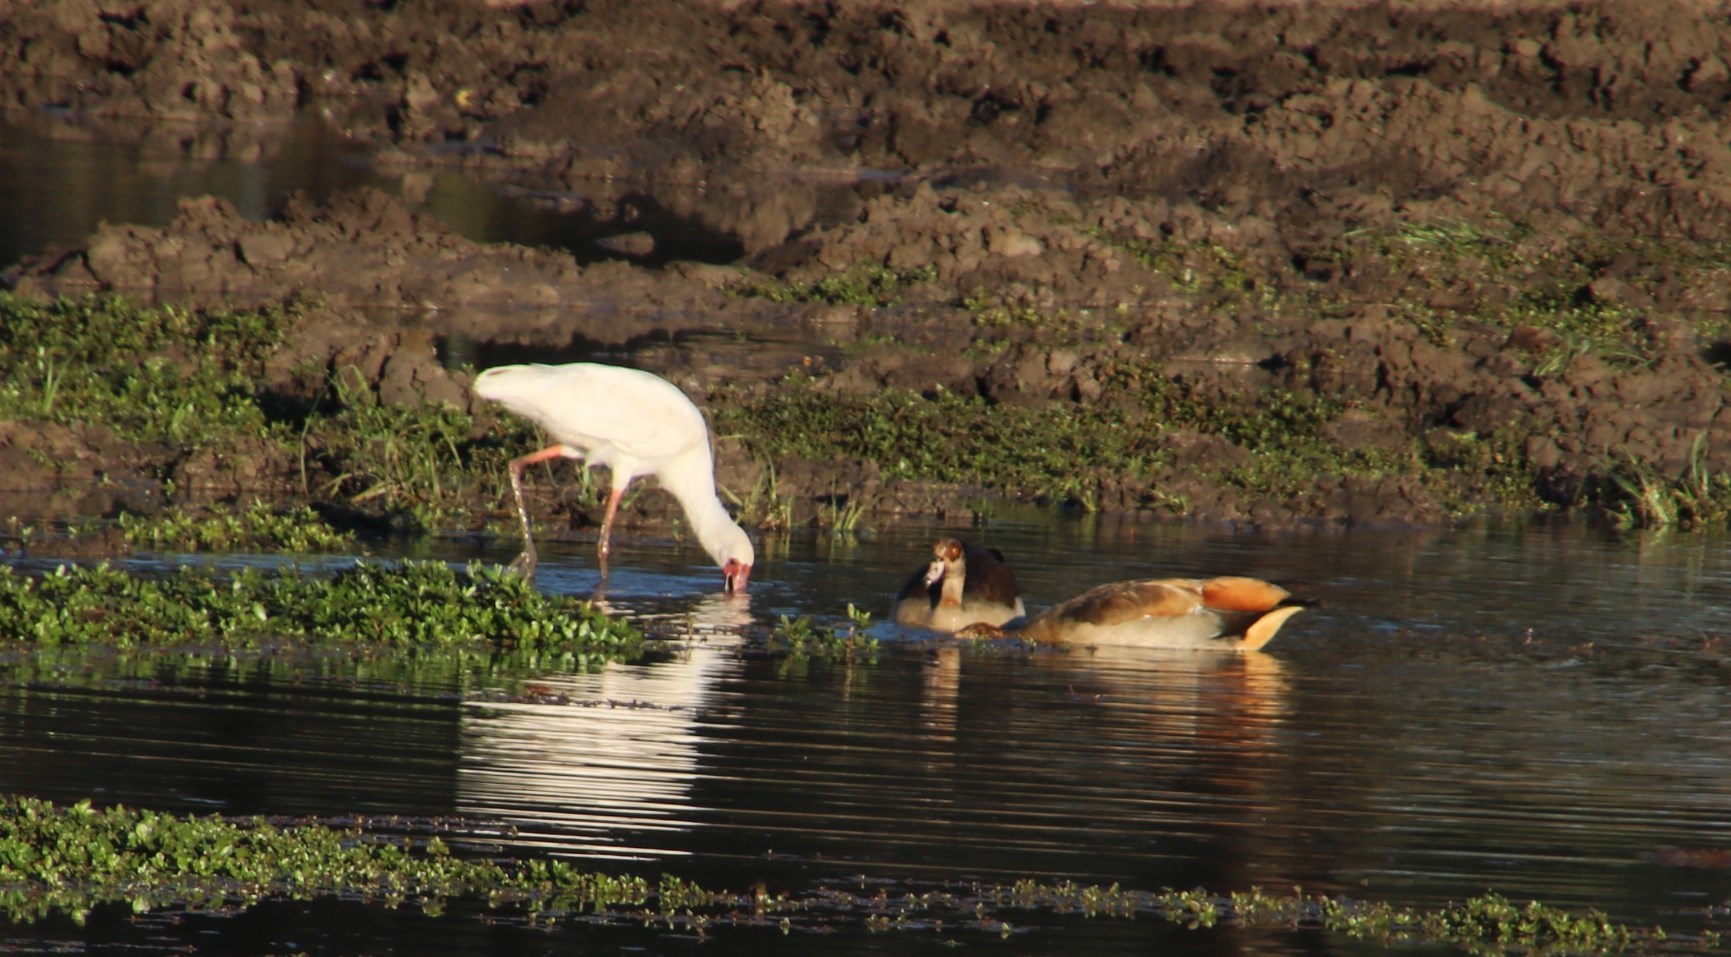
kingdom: Animalia
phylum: Chordata
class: Aves
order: Anseriformes
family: Anatidae
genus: Alopochen
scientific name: Alopochen aegyptiaca
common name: Egyptian goose
